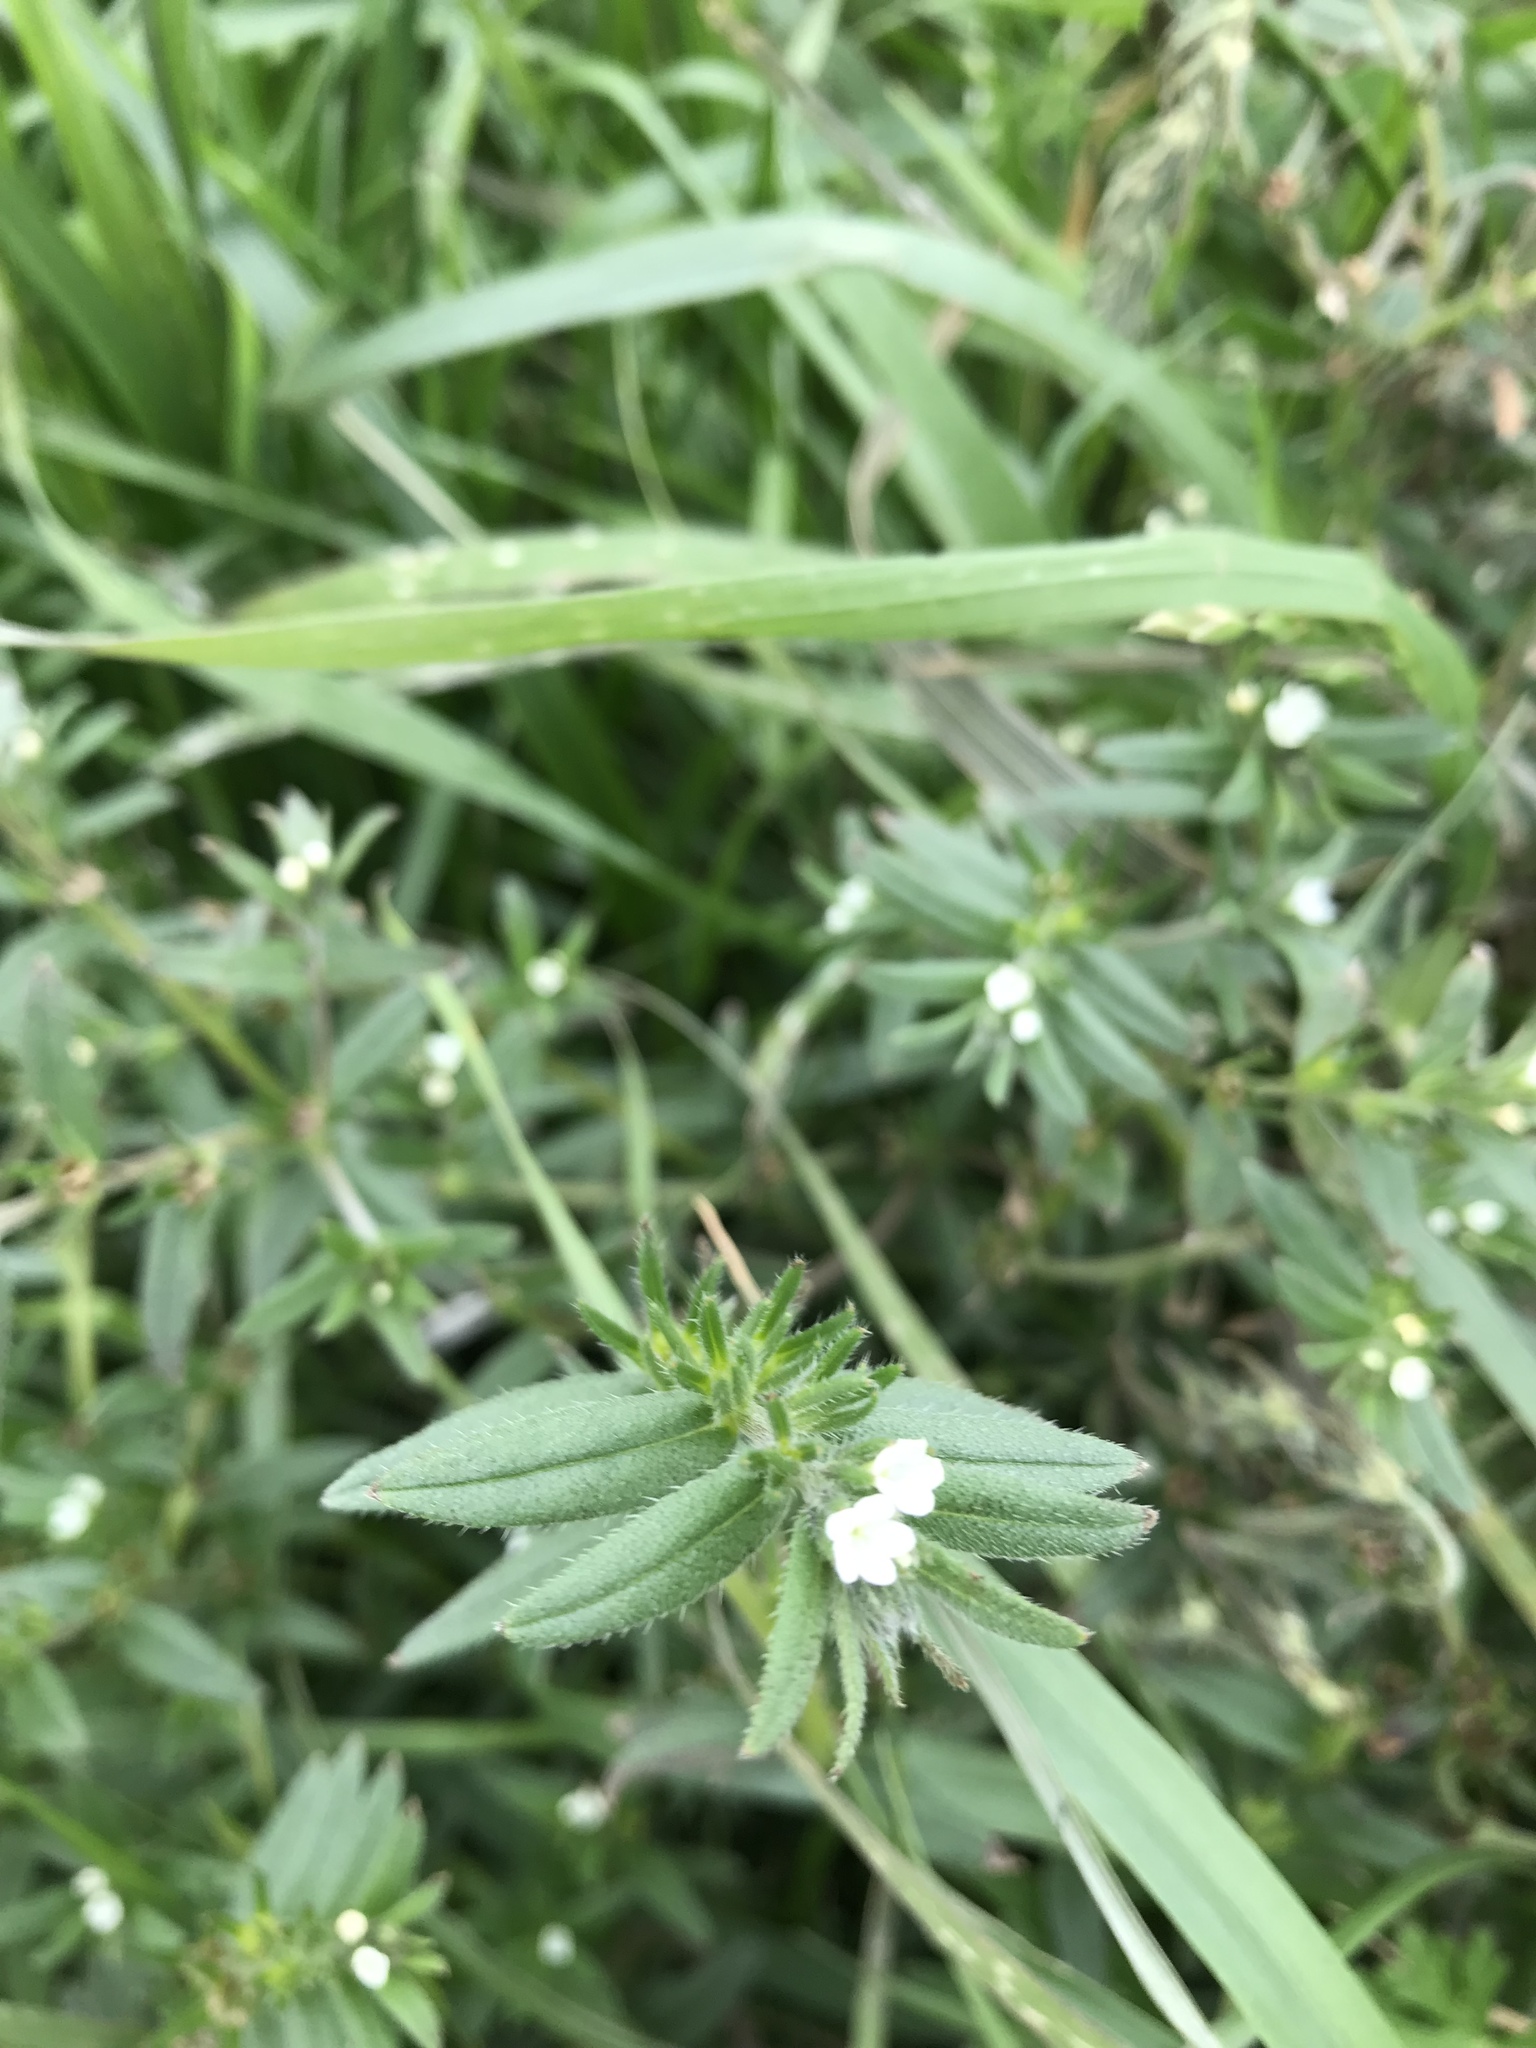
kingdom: Plantae
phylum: Tracheophyta
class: Magnoliopsida
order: Boraginales
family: Boraginaceae
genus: Buglossoides
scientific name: Buglossoides arvensis
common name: Corn gromwell
